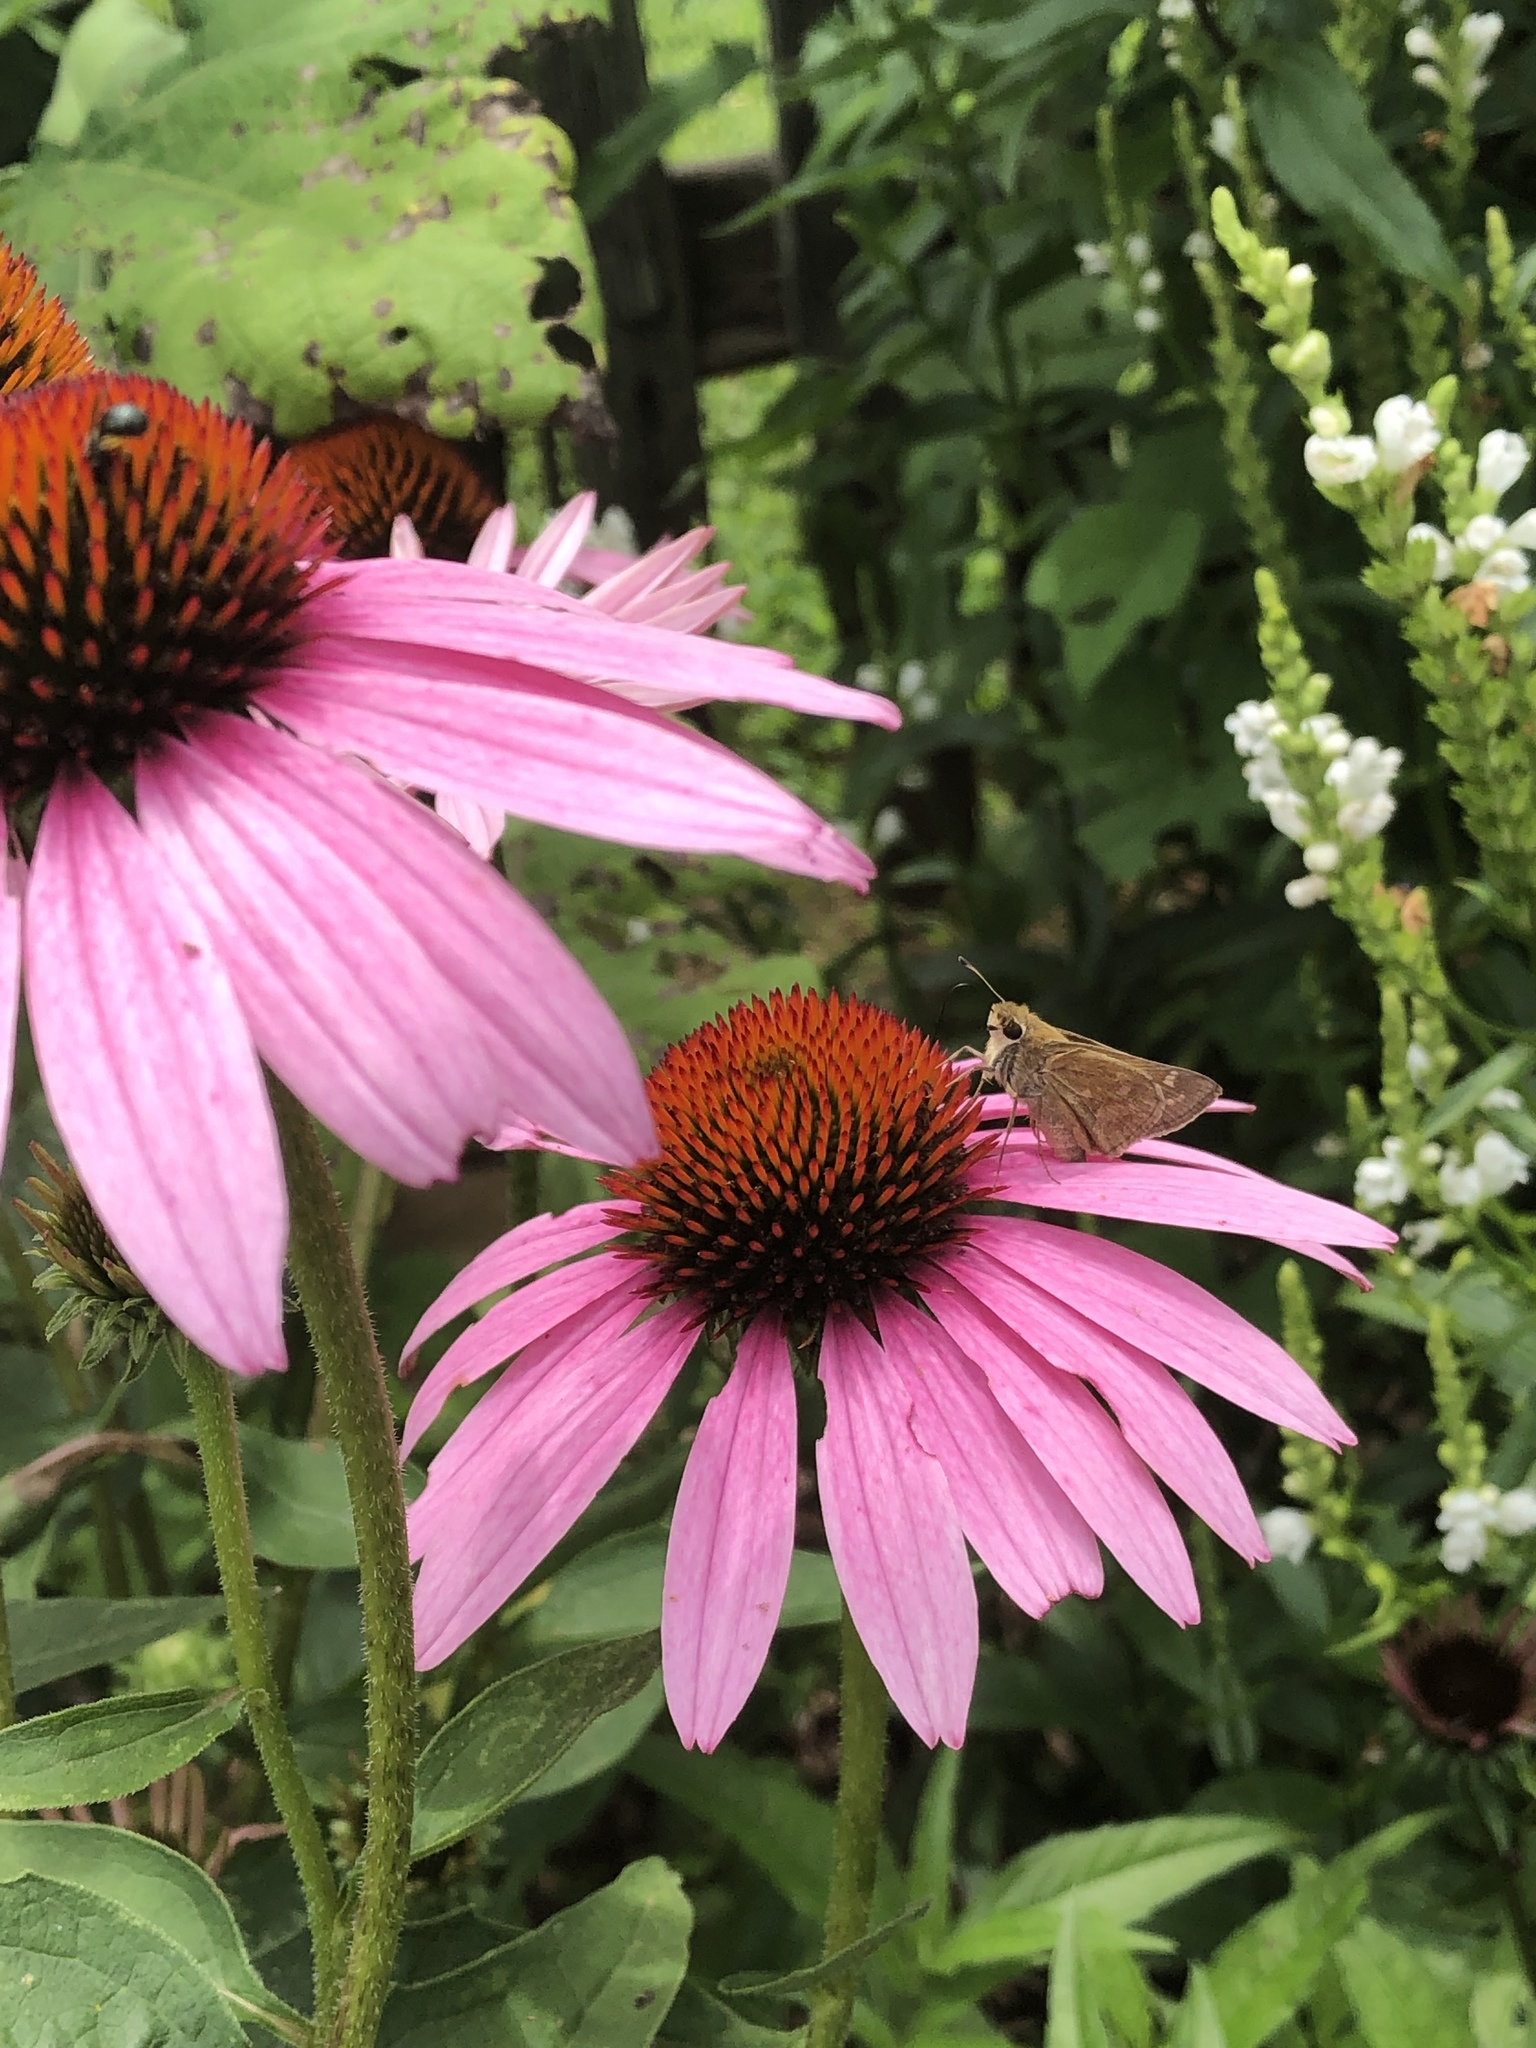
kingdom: Animalia
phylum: Arthropoda
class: Insecta
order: Lepidoptera
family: Hesperiidae
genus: Atalopedes
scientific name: Atalopedes
